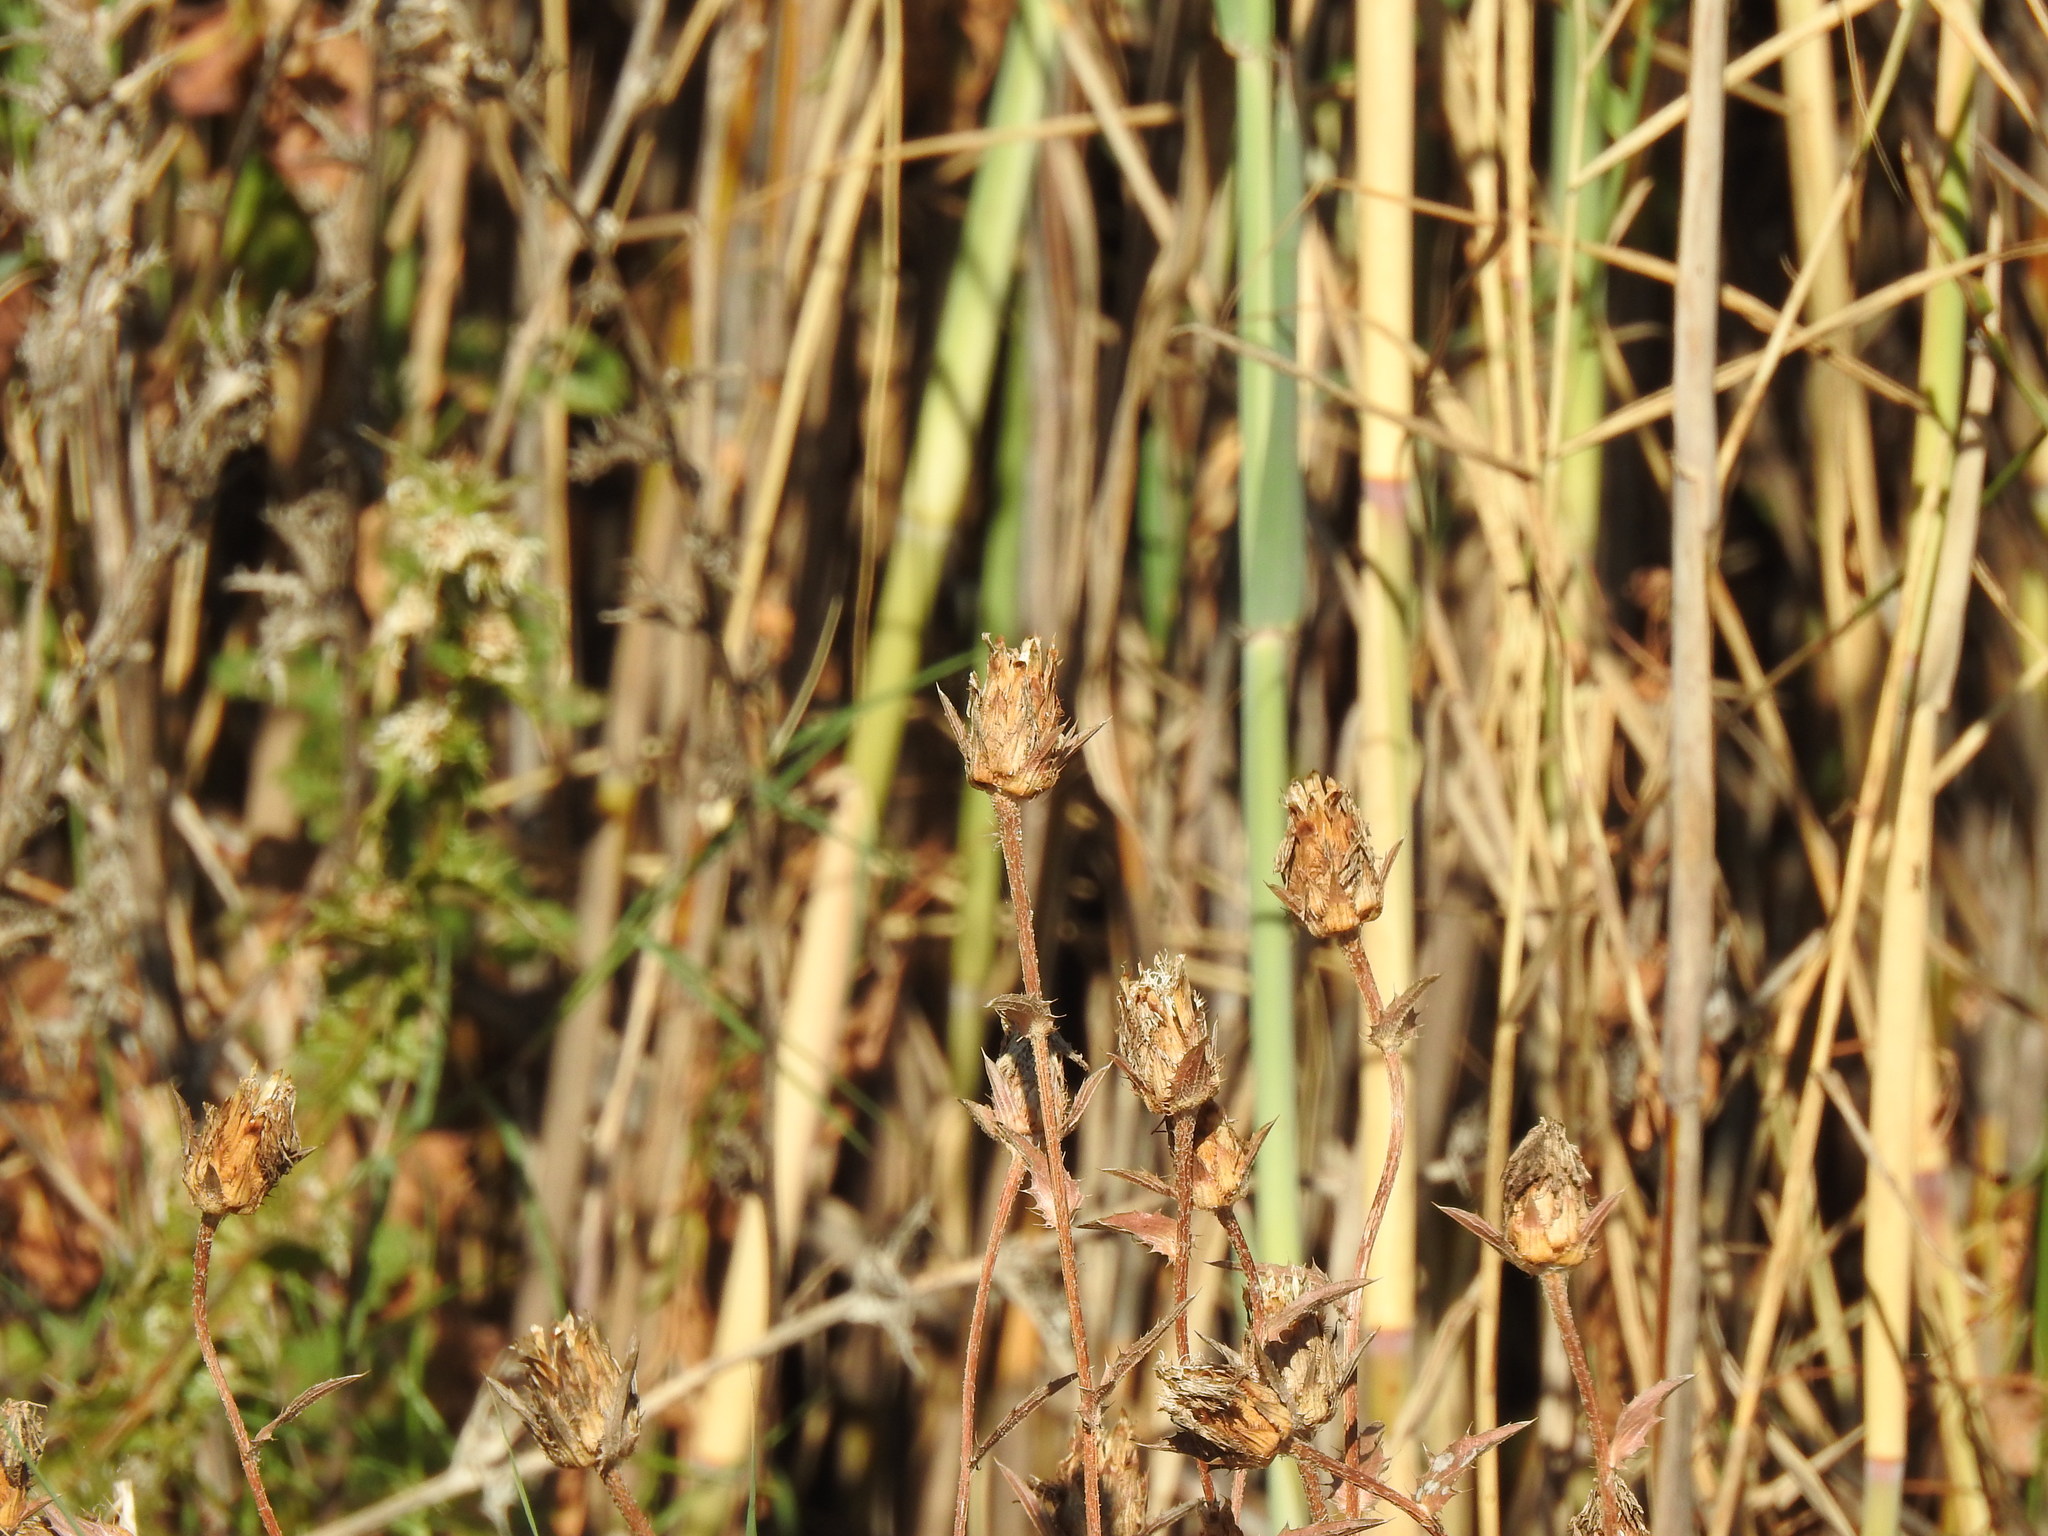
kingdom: Plantae
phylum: Tracheophyta
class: Magnoliopsida
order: Asterales
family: Asteraceae
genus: Carduncellus
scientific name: Carduncellus caeruleus
